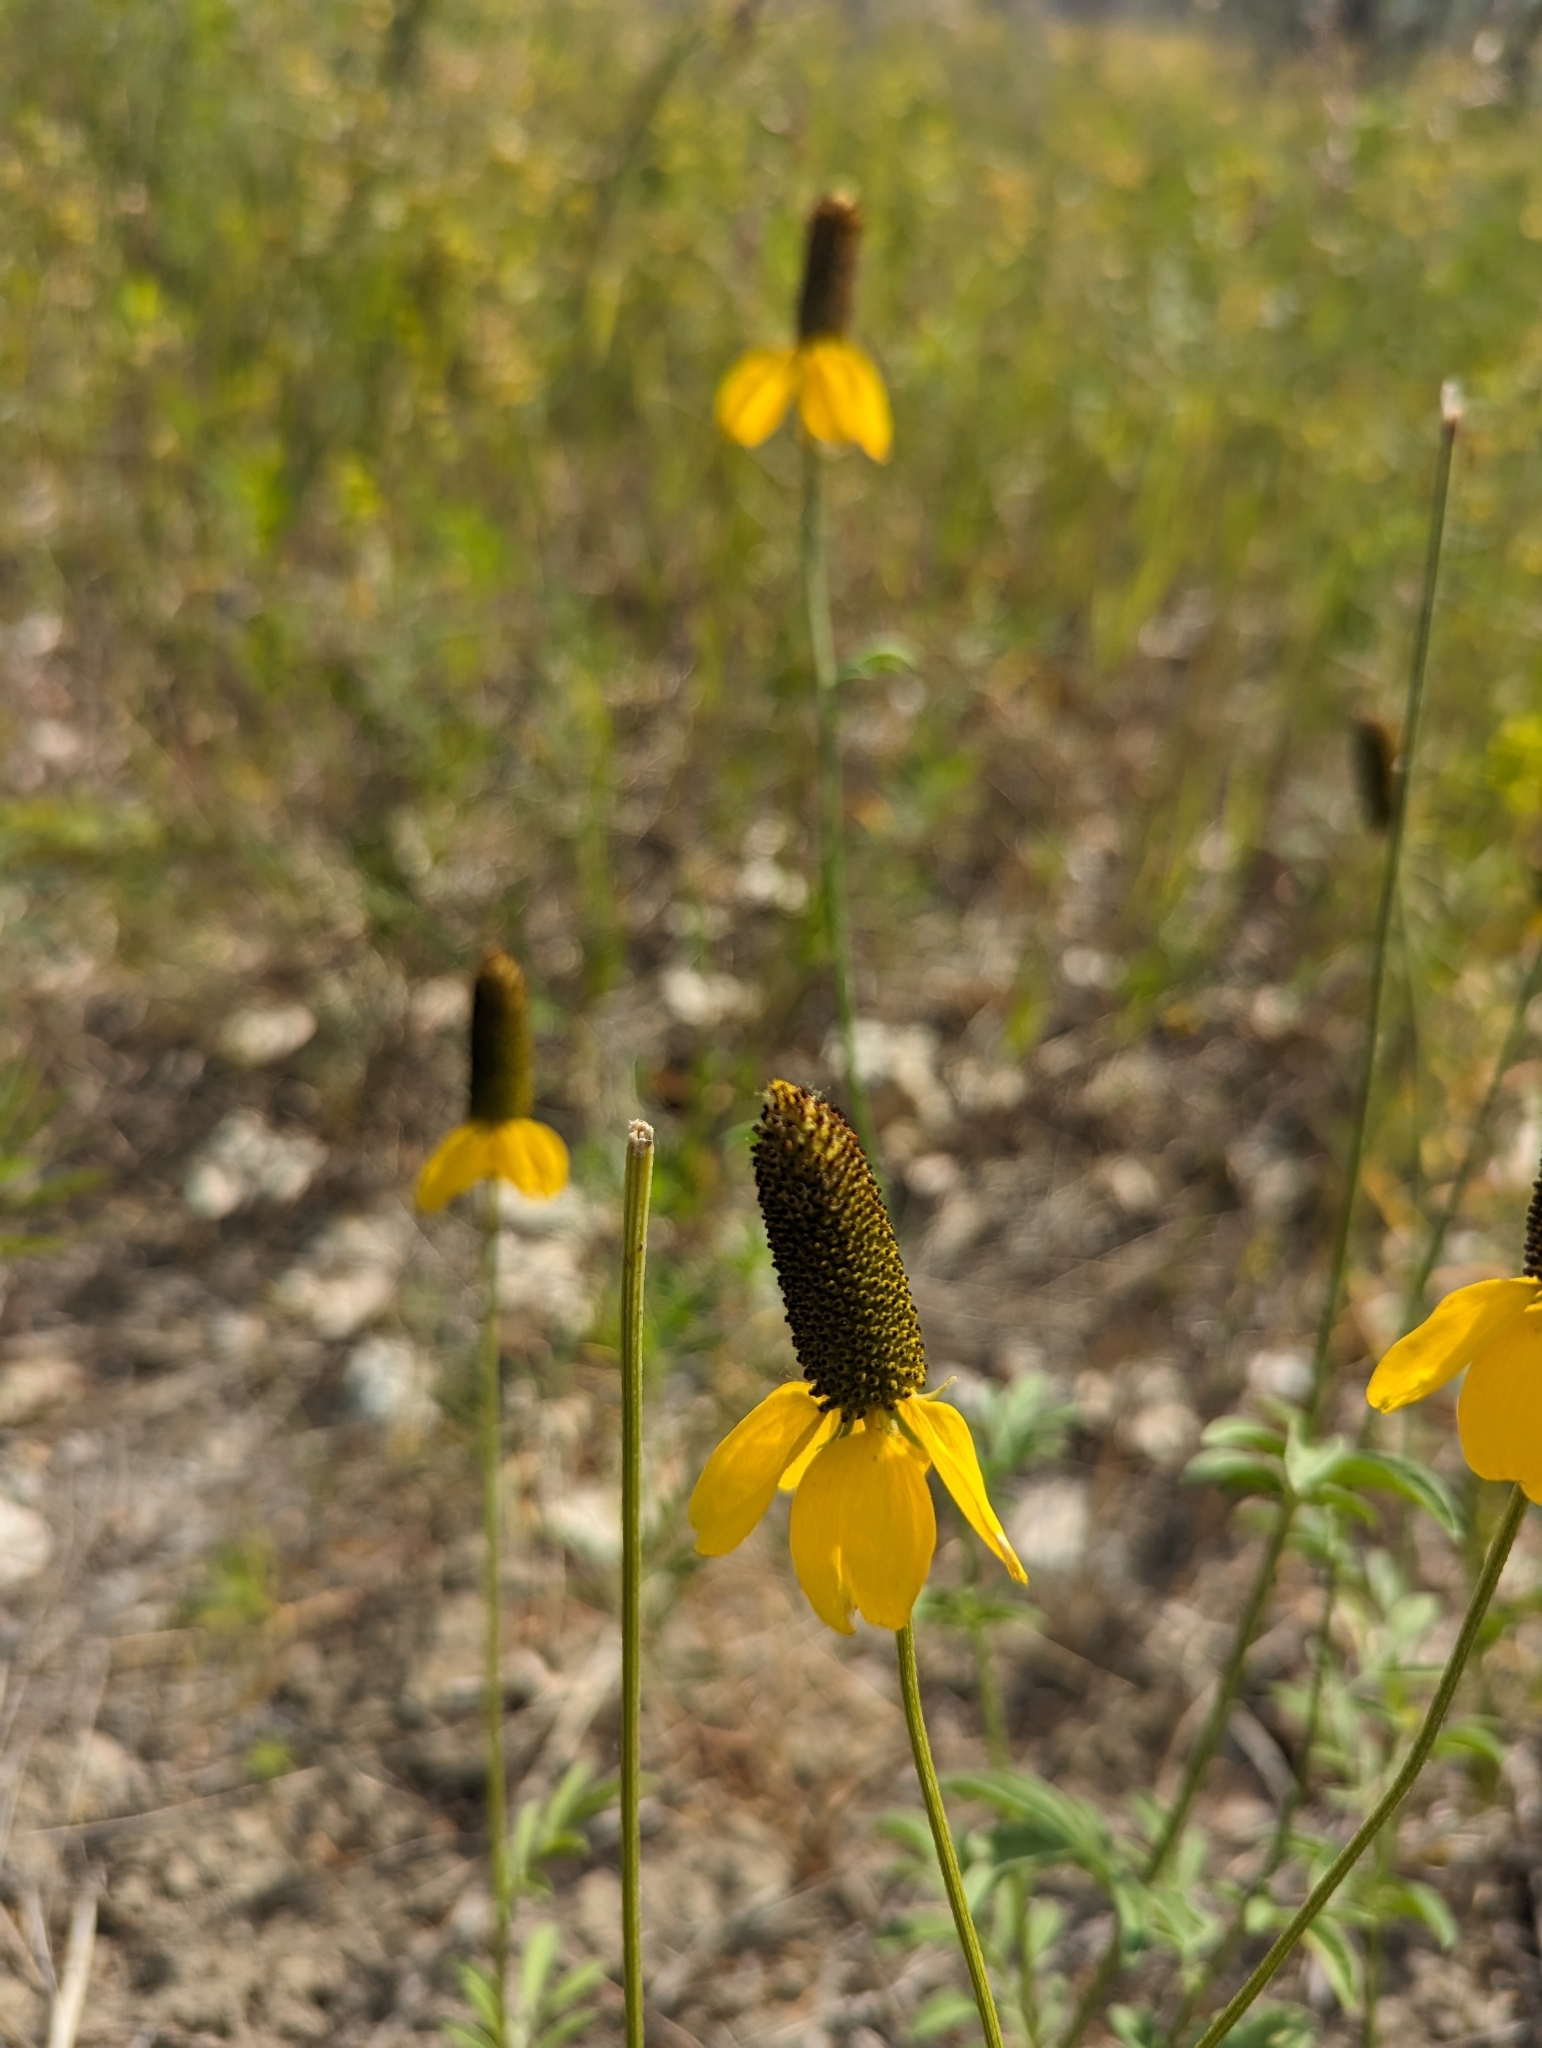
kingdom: Plantae
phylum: Tracheophyta
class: Magnoliopsida
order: Asterales
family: Asteraceae
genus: Ratibida
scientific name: Ratibida columnifera
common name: Prairie coneflower
